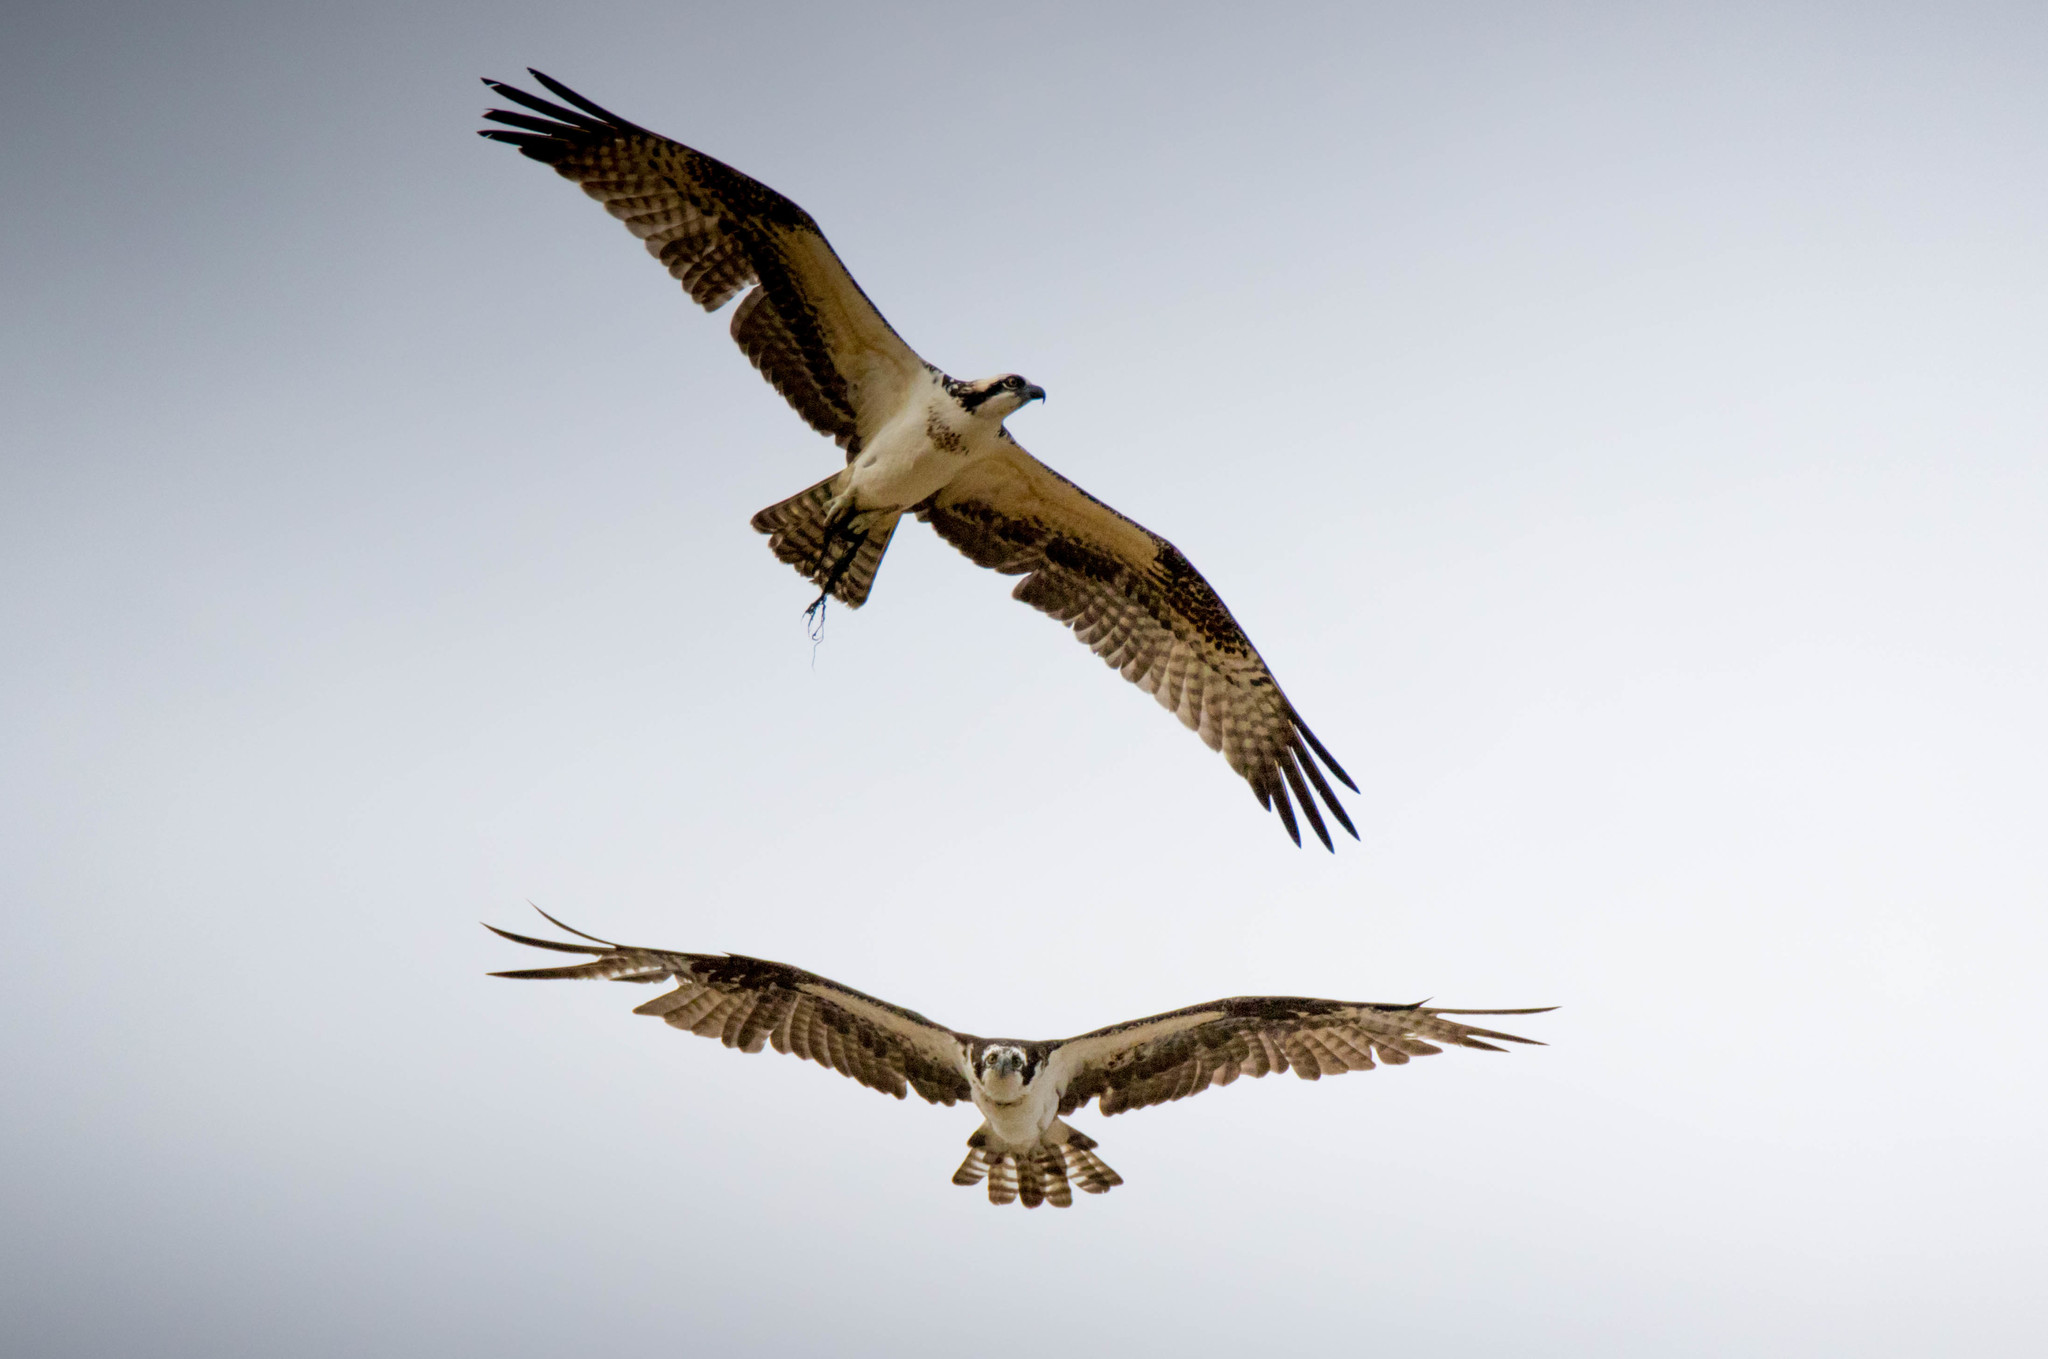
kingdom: Animalia
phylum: Chordata
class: Aves
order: Accipitriformes
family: Pandionidae
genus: Pandion
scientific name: Pandion haliaetus
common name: Osprey
